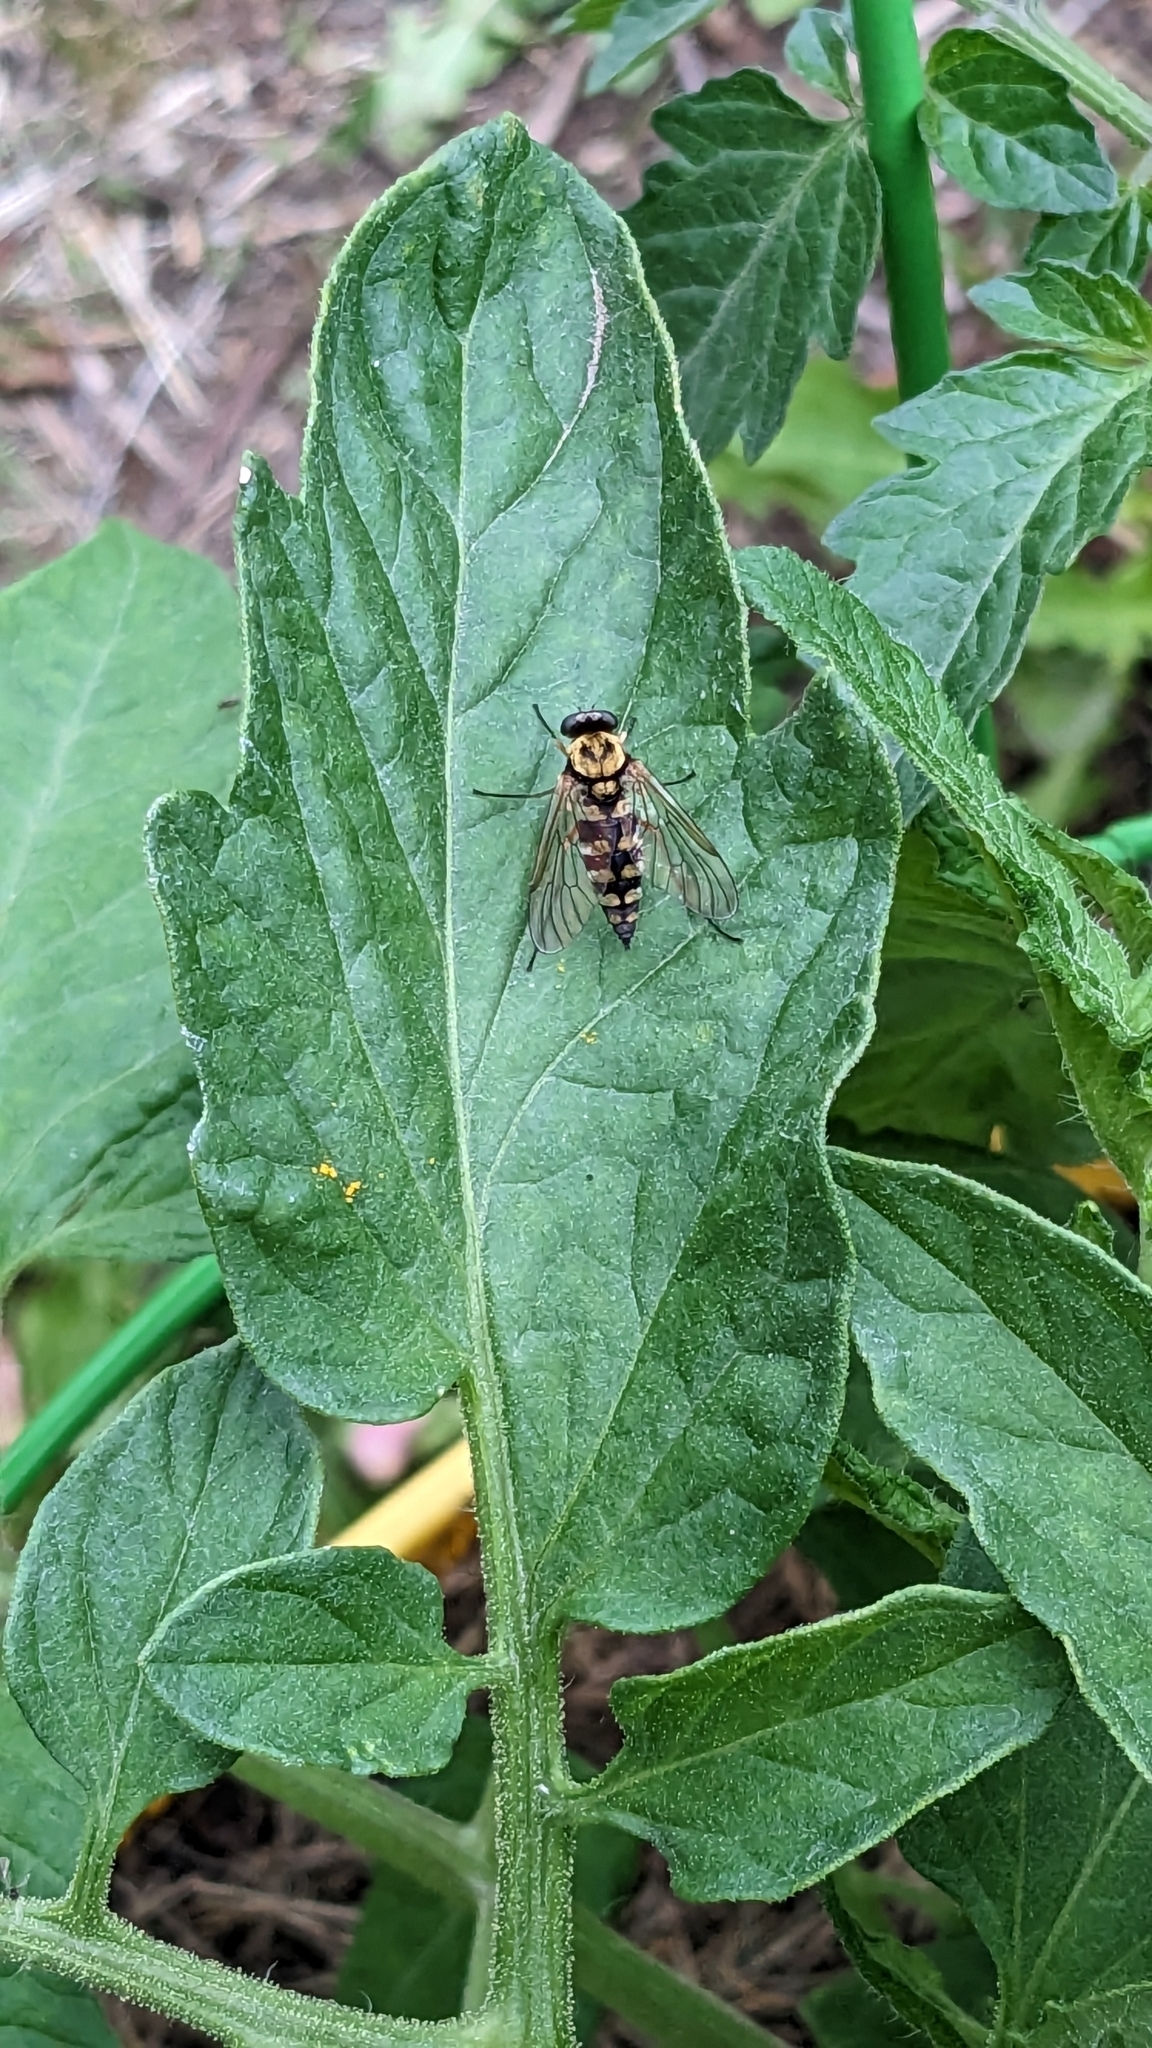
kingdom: Animalia
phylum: Arthropoda
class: Insecta
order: Diptera
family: Rhagionidae
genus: Chrysopilus
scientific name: Chrysopilus ornatus
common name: Ornate snipe fly
